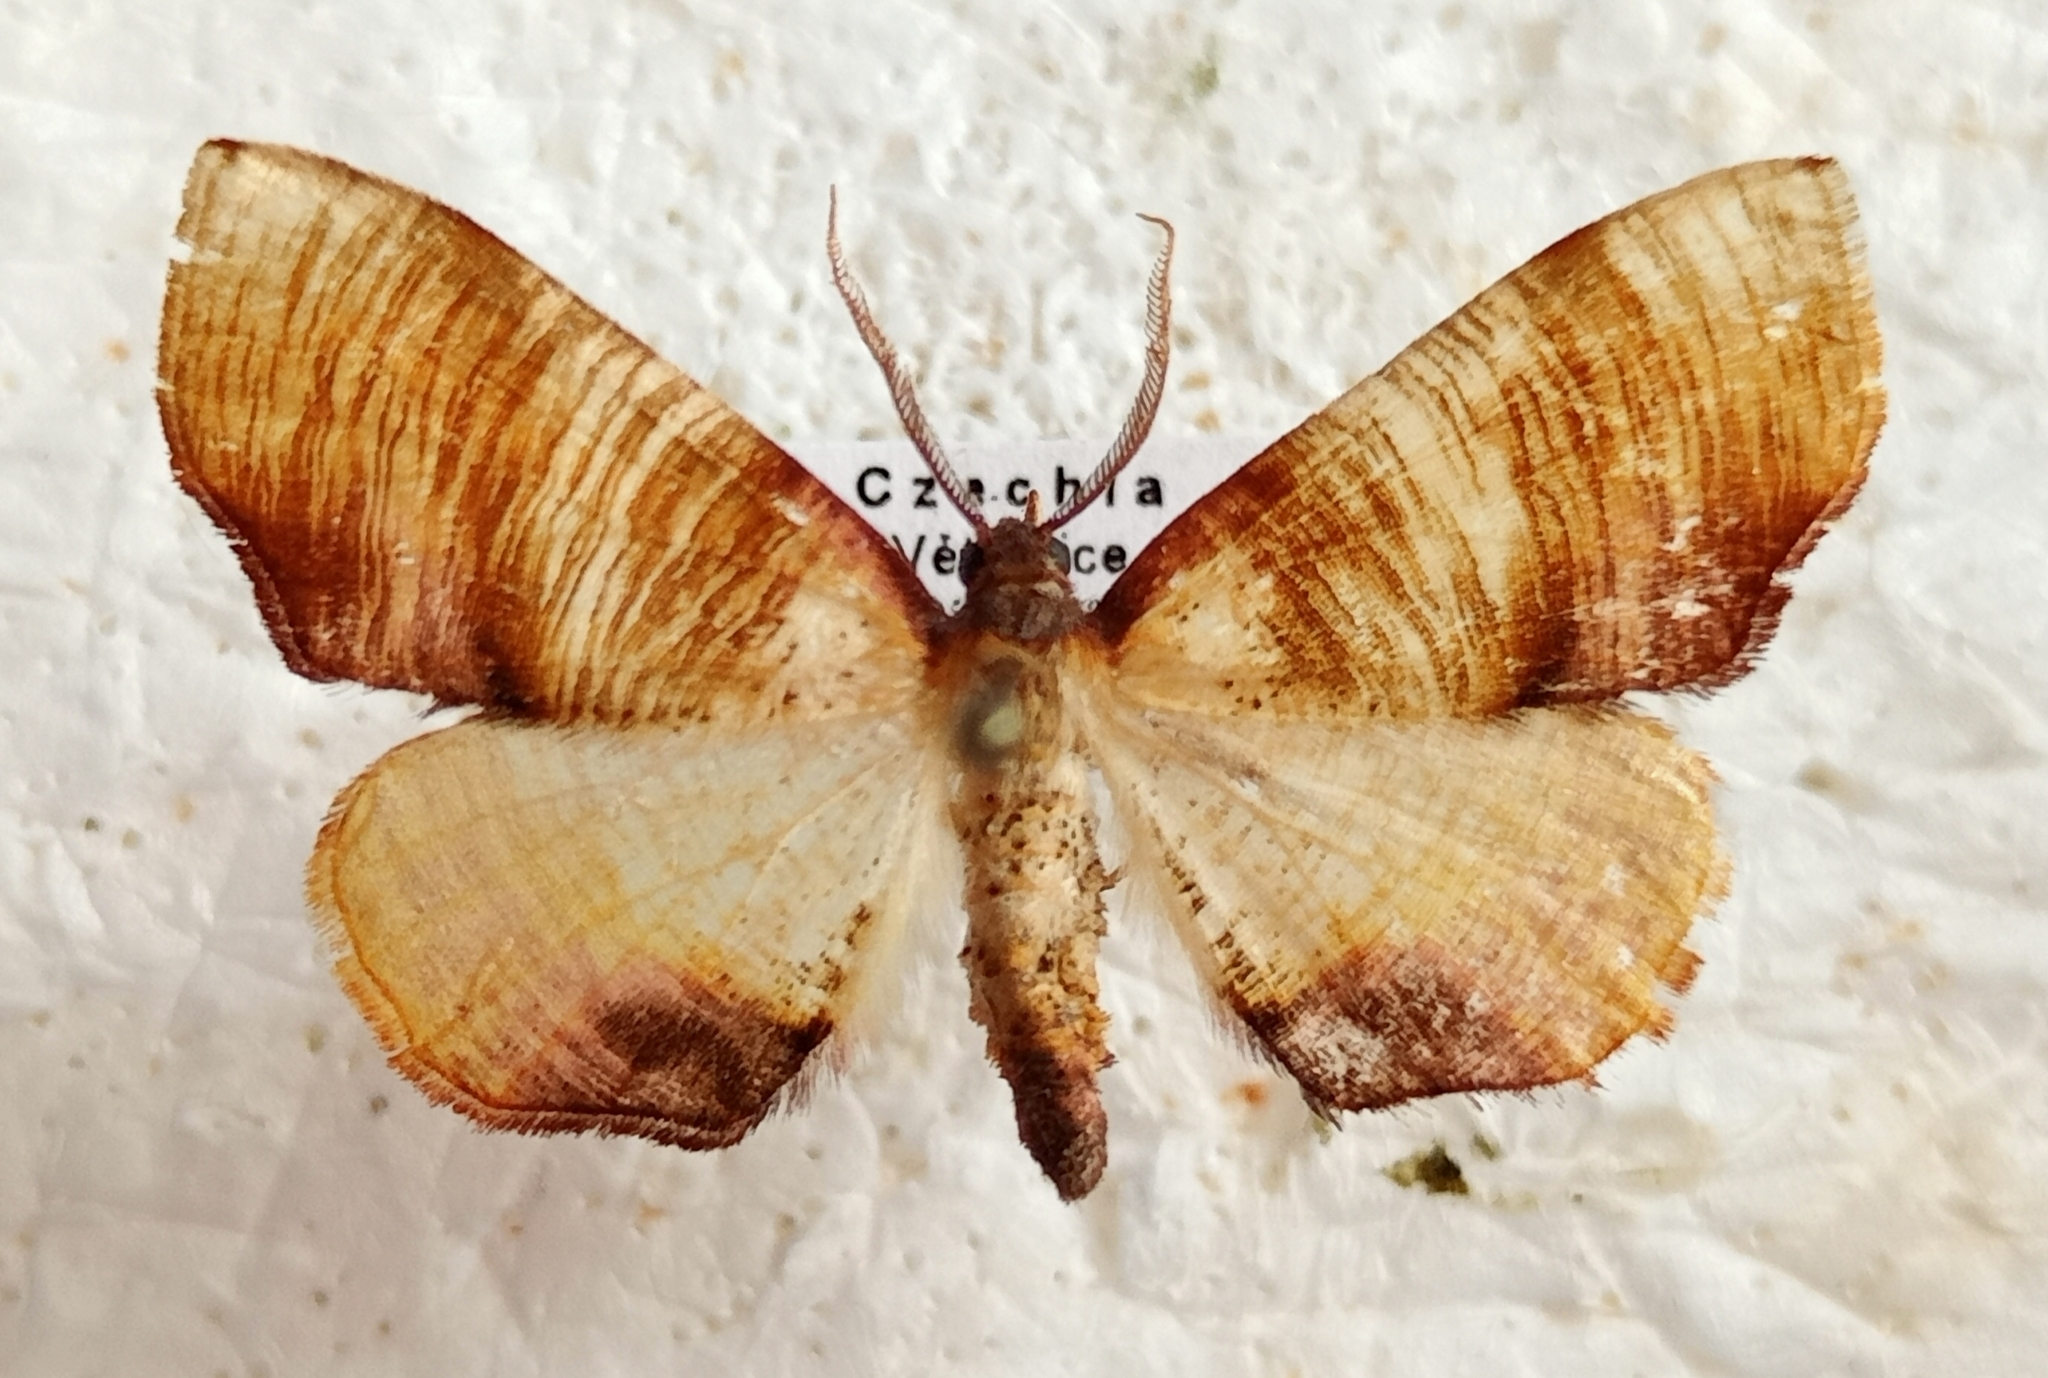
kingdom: Animalia
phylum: Arthropoda
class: Insecta
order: Lepidoptera
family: Geometridae
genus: Plagodis
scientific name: Plagodis dolabraria
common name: Scorched wing
